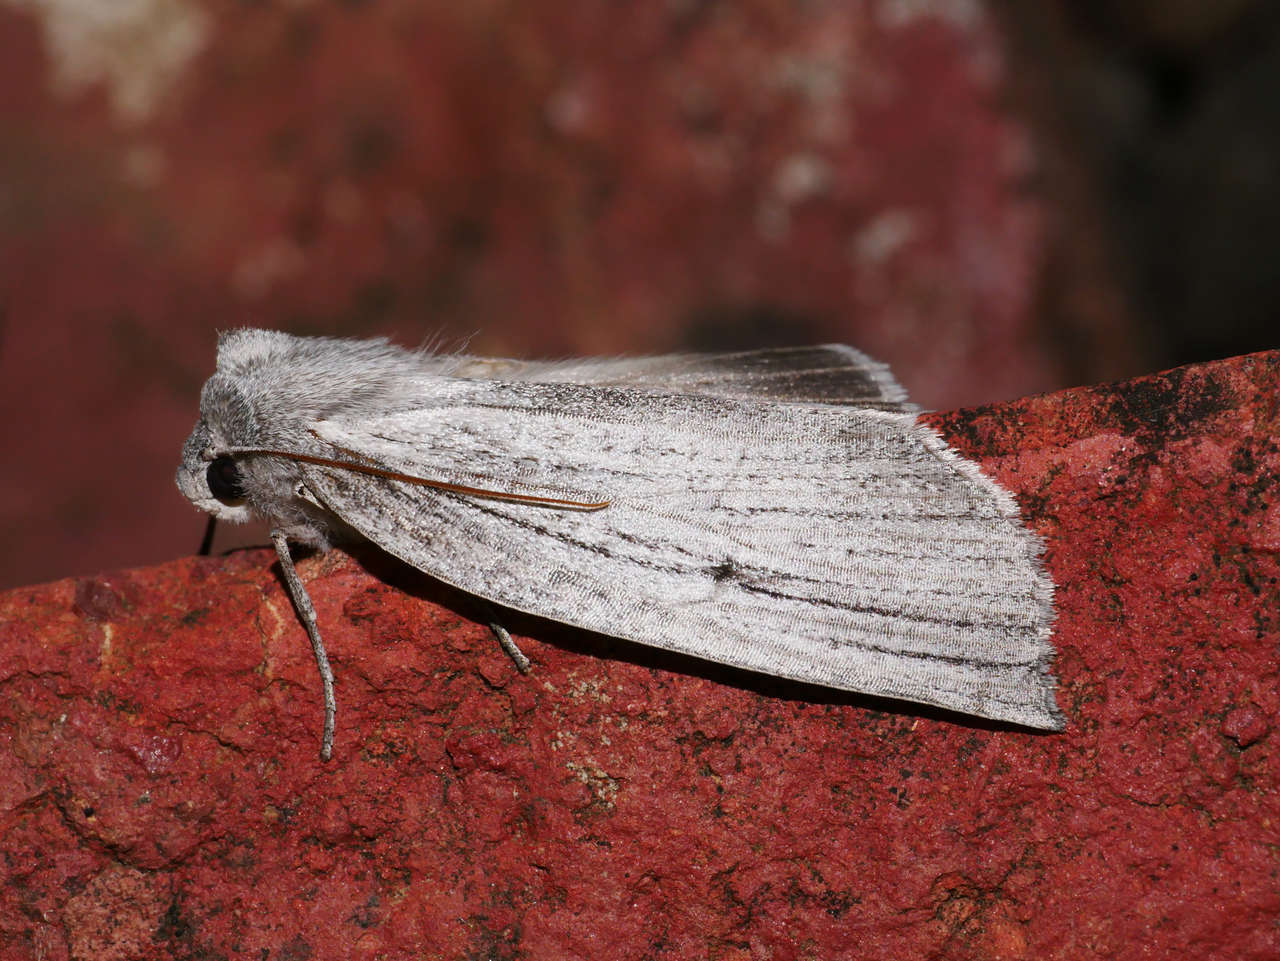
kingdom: Animalia
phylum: Arthropoda
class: Insecta
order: Lepidoptera
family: Geometridae
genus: Paralaea
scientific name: Paralaea polysticha
